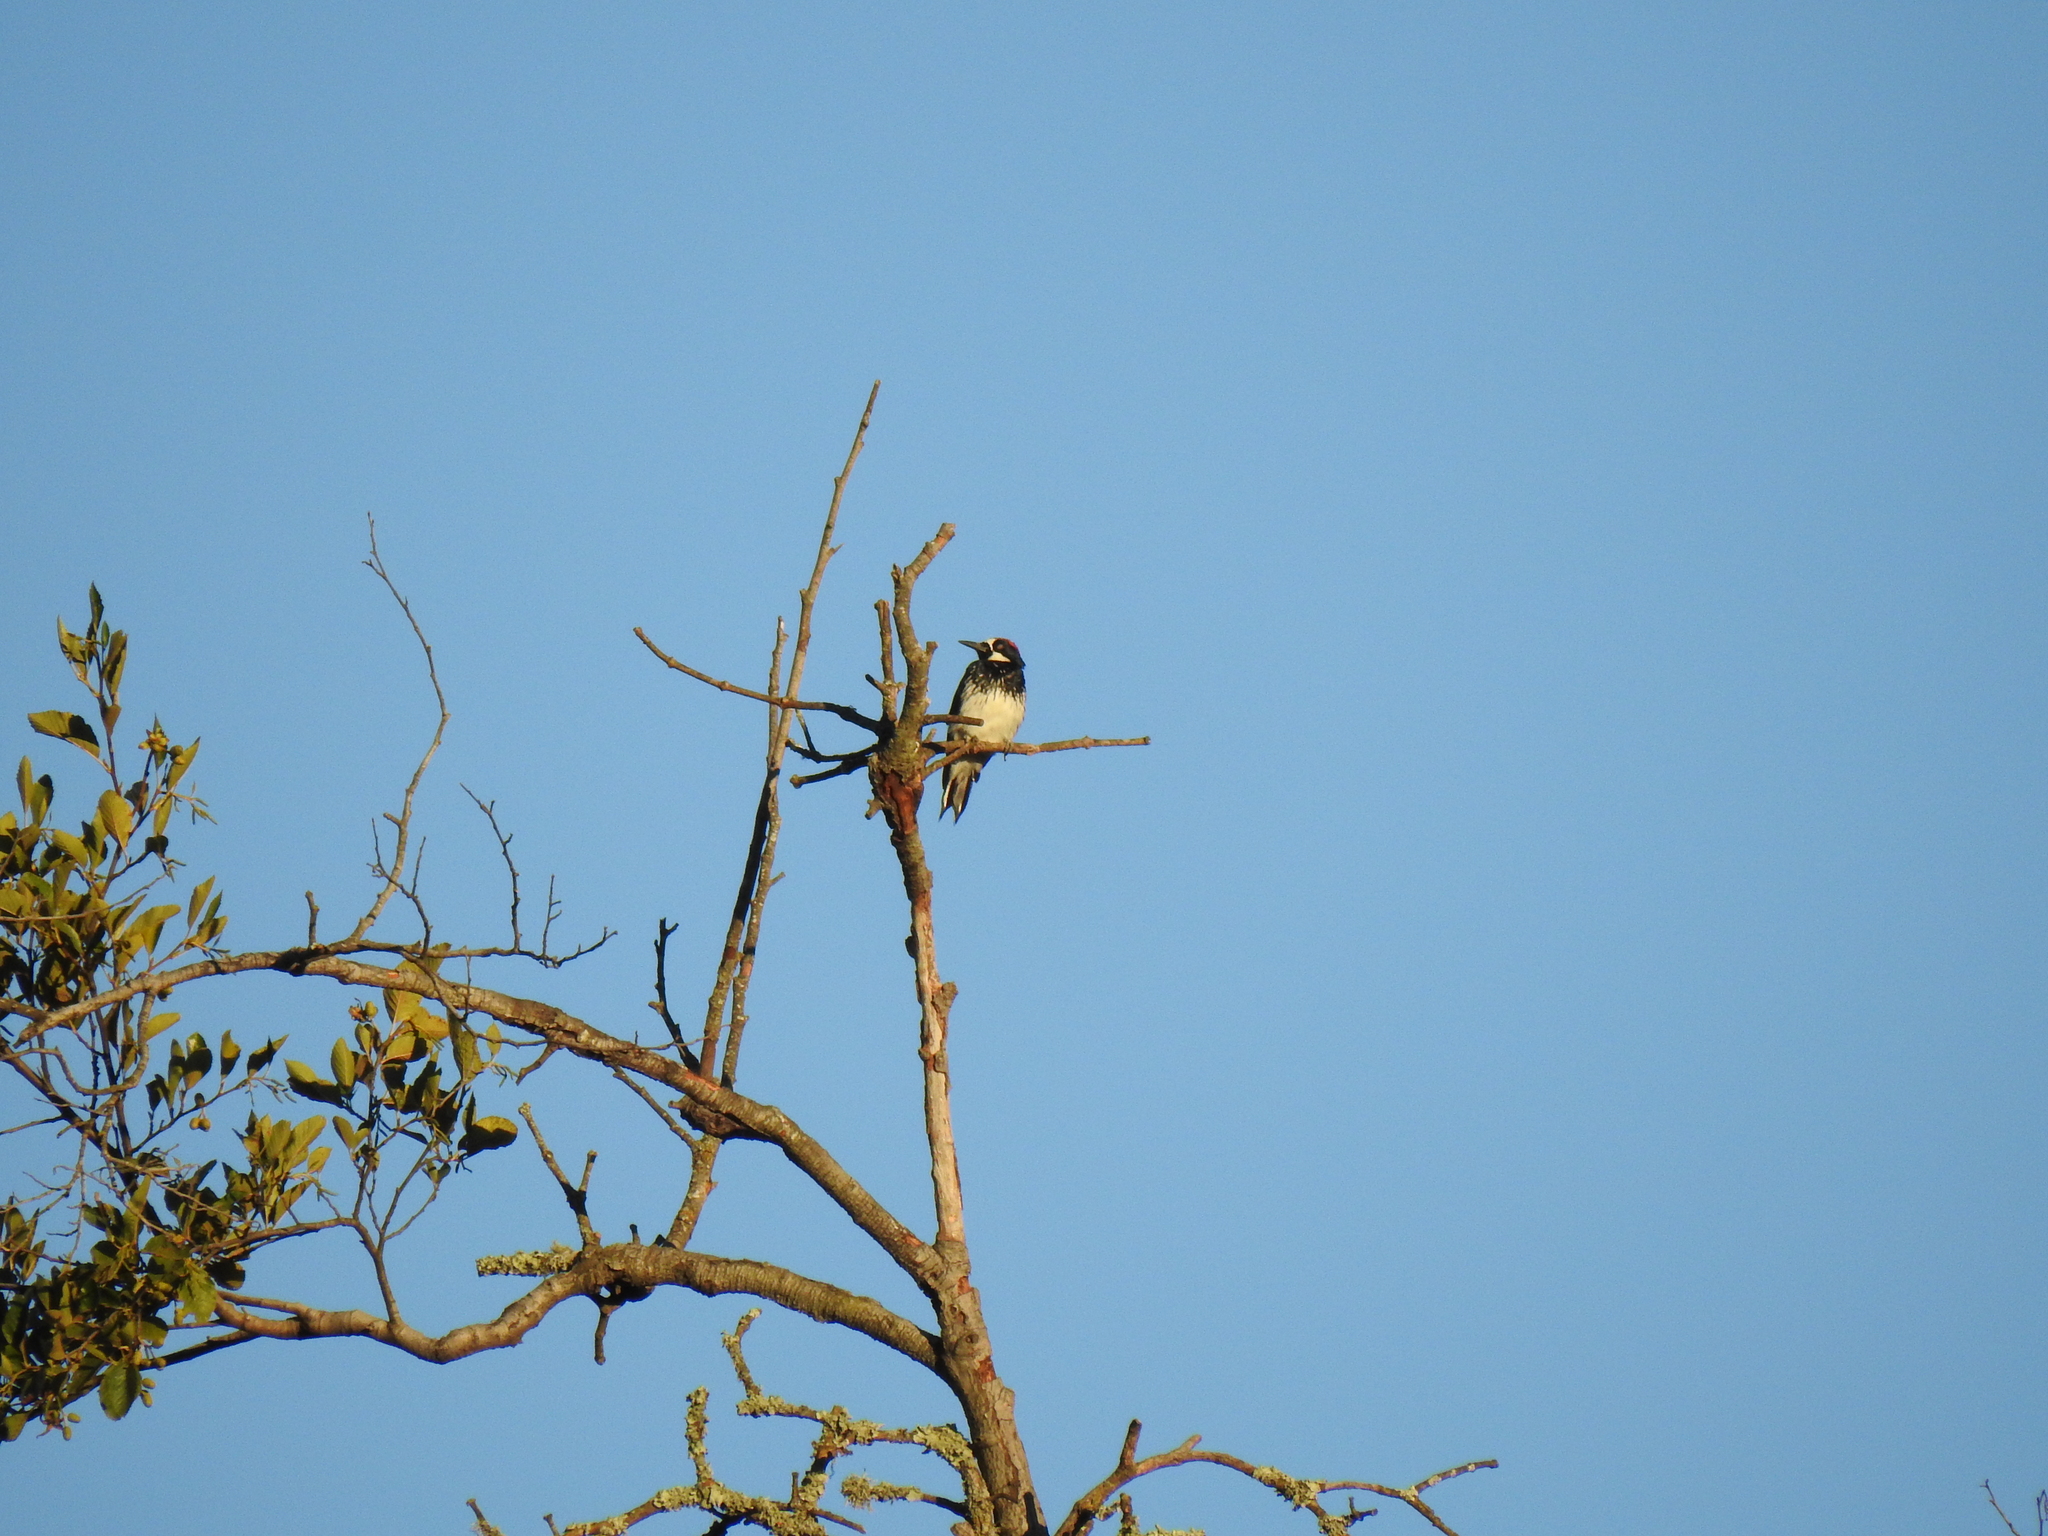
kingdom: Animalia
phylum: Chordata
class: Aves
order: Piciformes
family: Picidae
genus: Melanerpes
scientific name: Melanerpes formicivorus
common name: Acorn woodpecker
